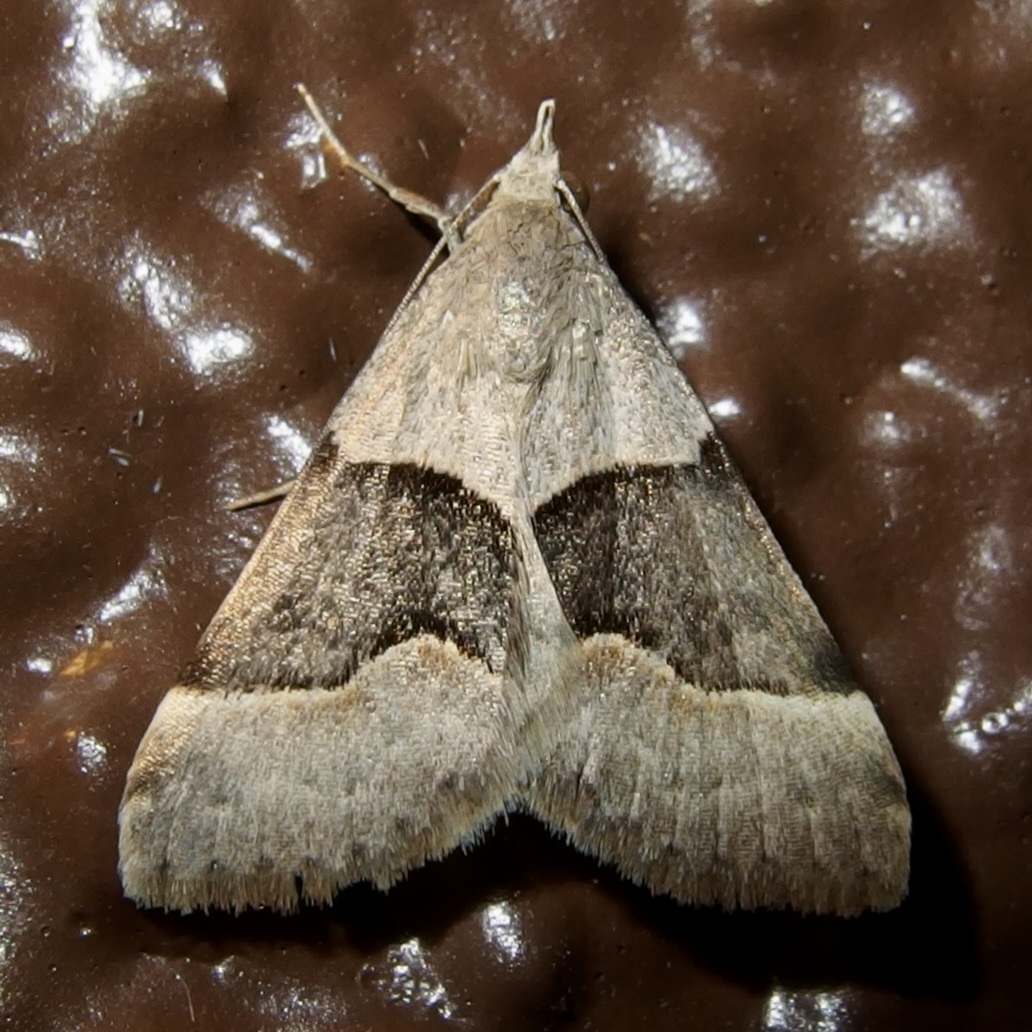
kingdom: Animalia
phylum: Arthropoda
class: Insecta
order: Lepidoptera
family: Erebidae
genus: Hemeroplanis
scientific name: Hemeroplanis incusalis
